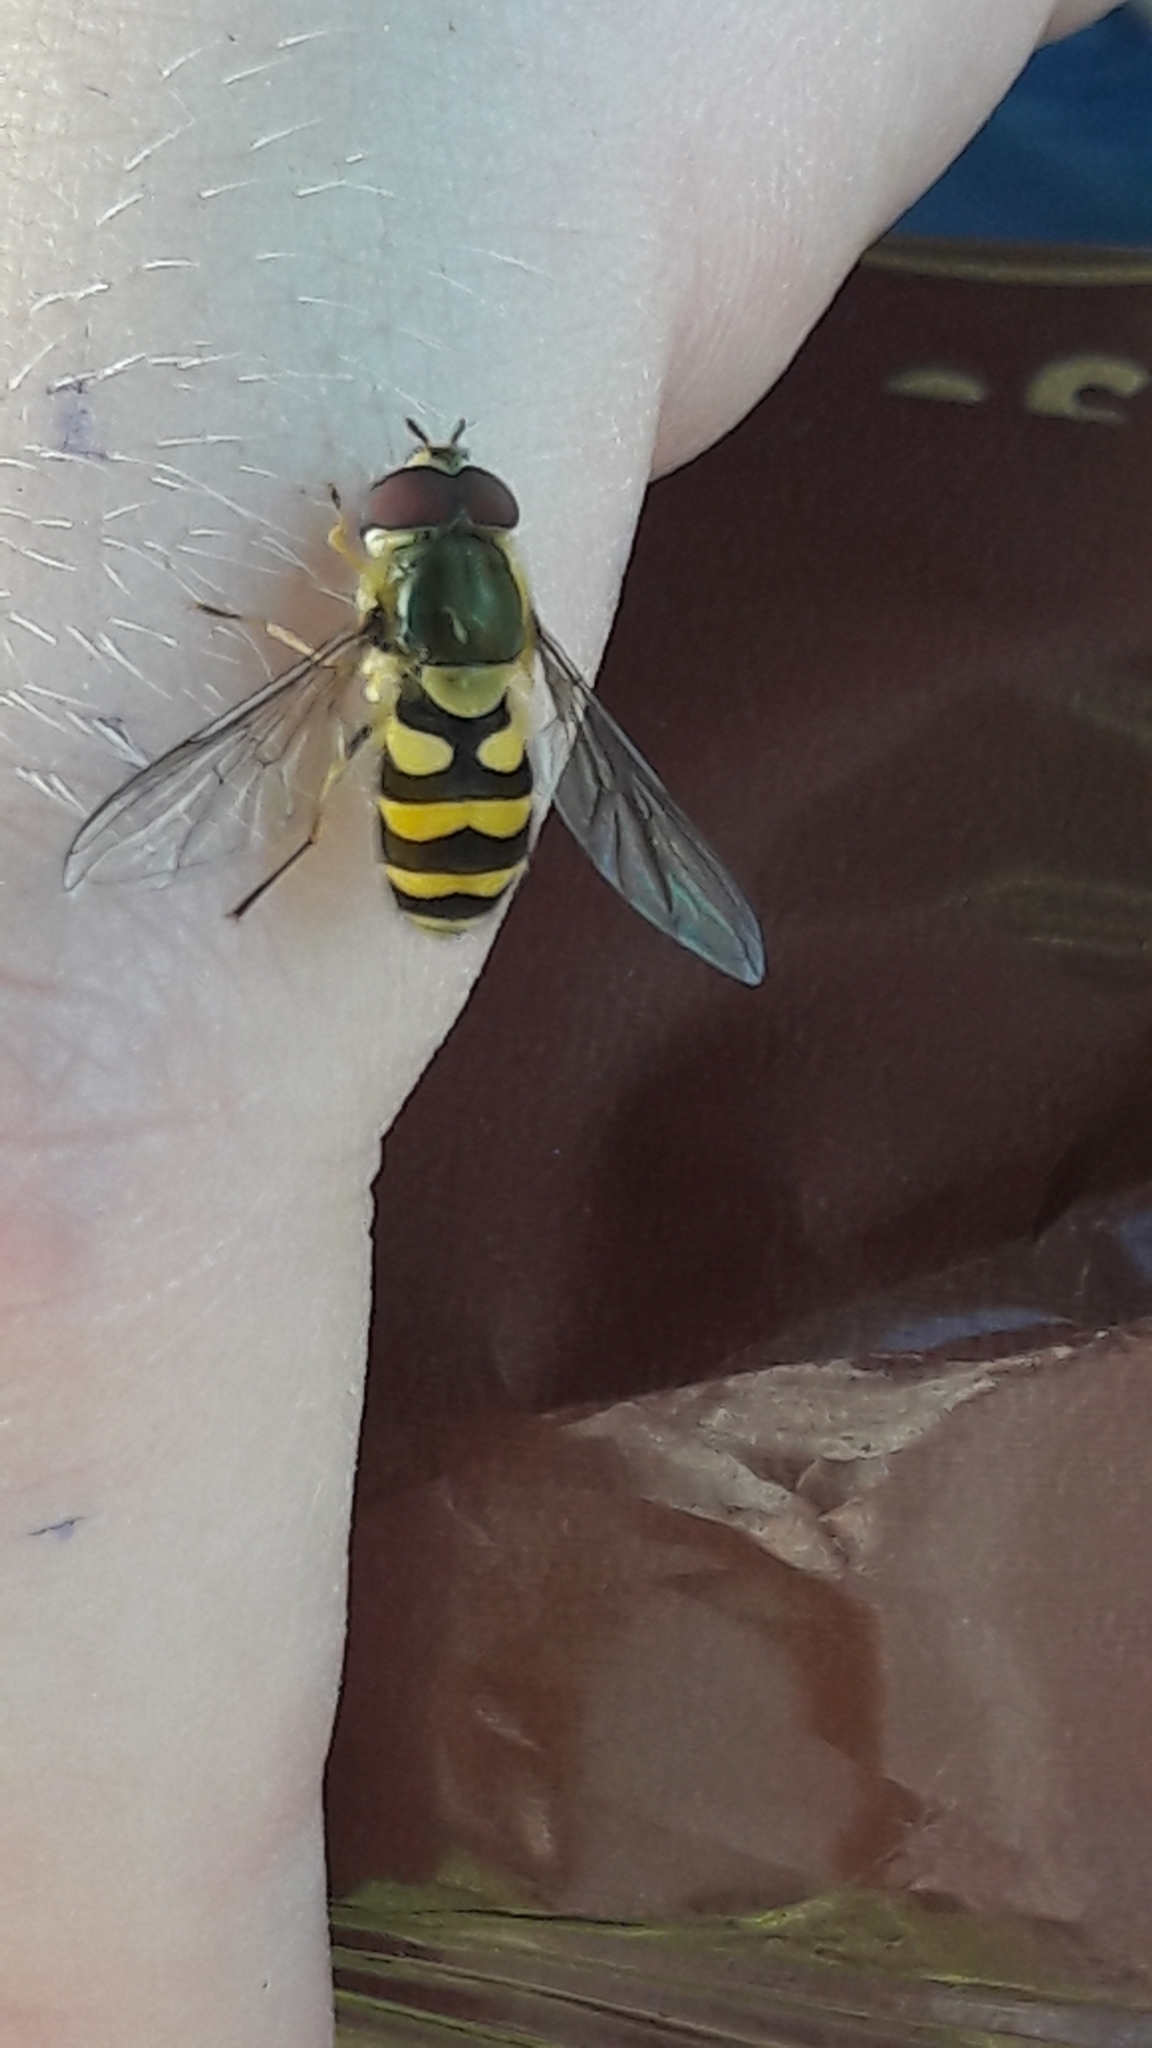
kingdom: Animalia
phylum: Arthropoda
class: Insecta
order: Diptera
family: Syrphidae
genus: Syrphus
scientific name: Syrphus
